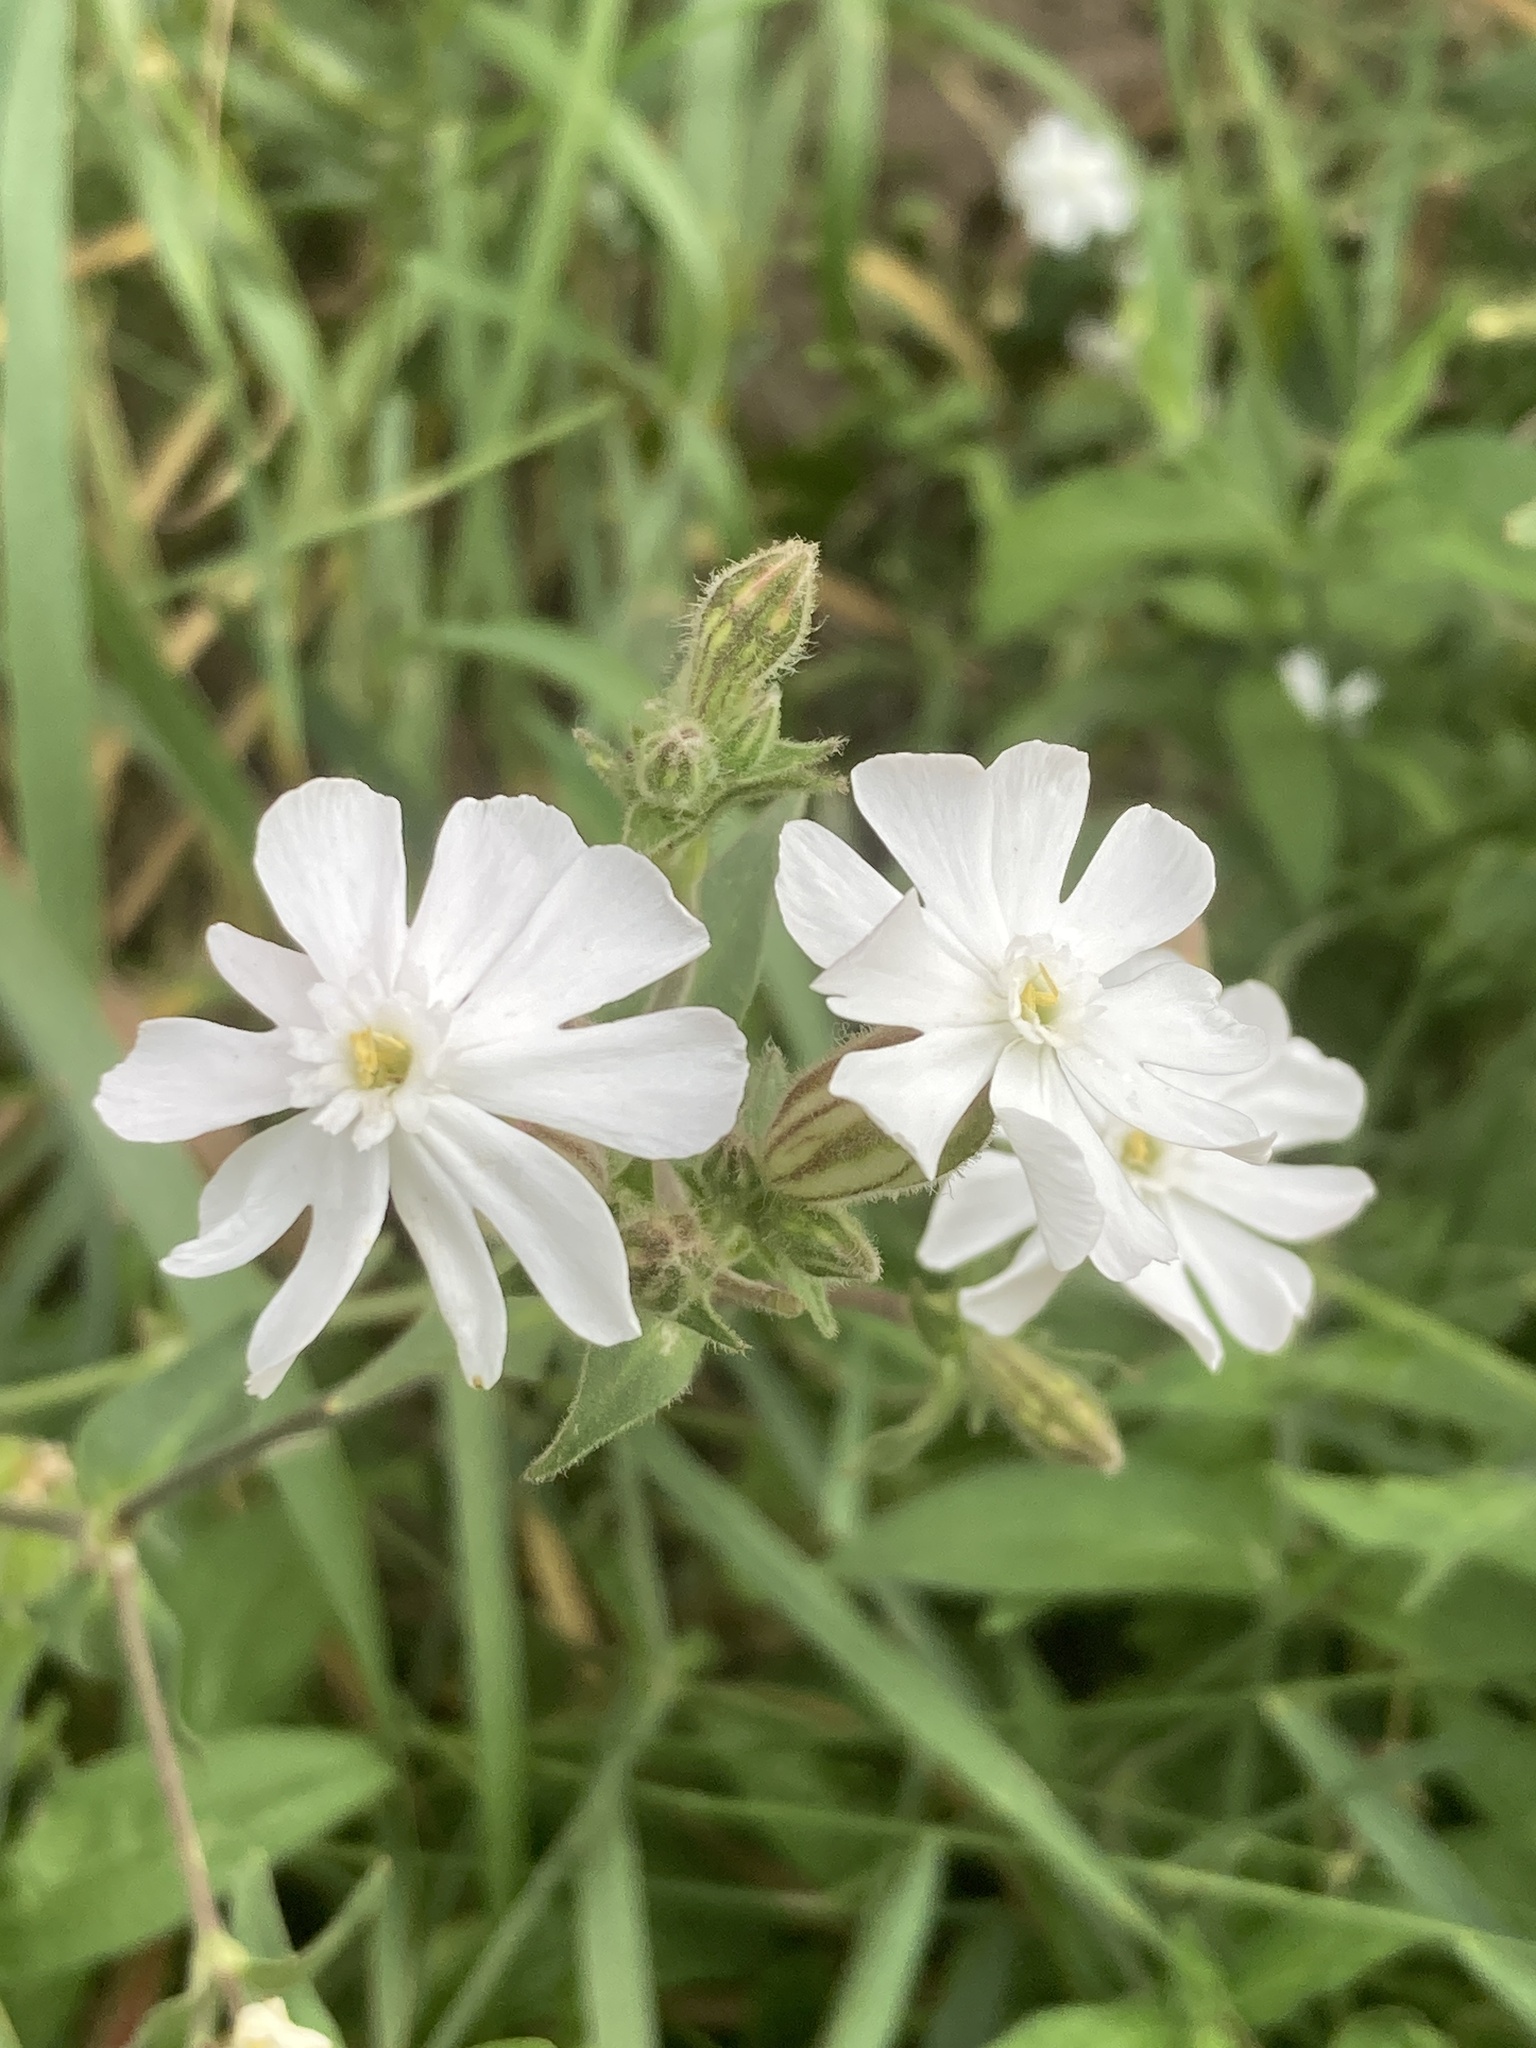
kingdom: Plantae
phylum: Tracheophyta
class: Magnoliopsida
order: Caryophyllales
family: Caryophyllaceae
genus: Silene
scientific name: Silene latifolia
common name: White campion
